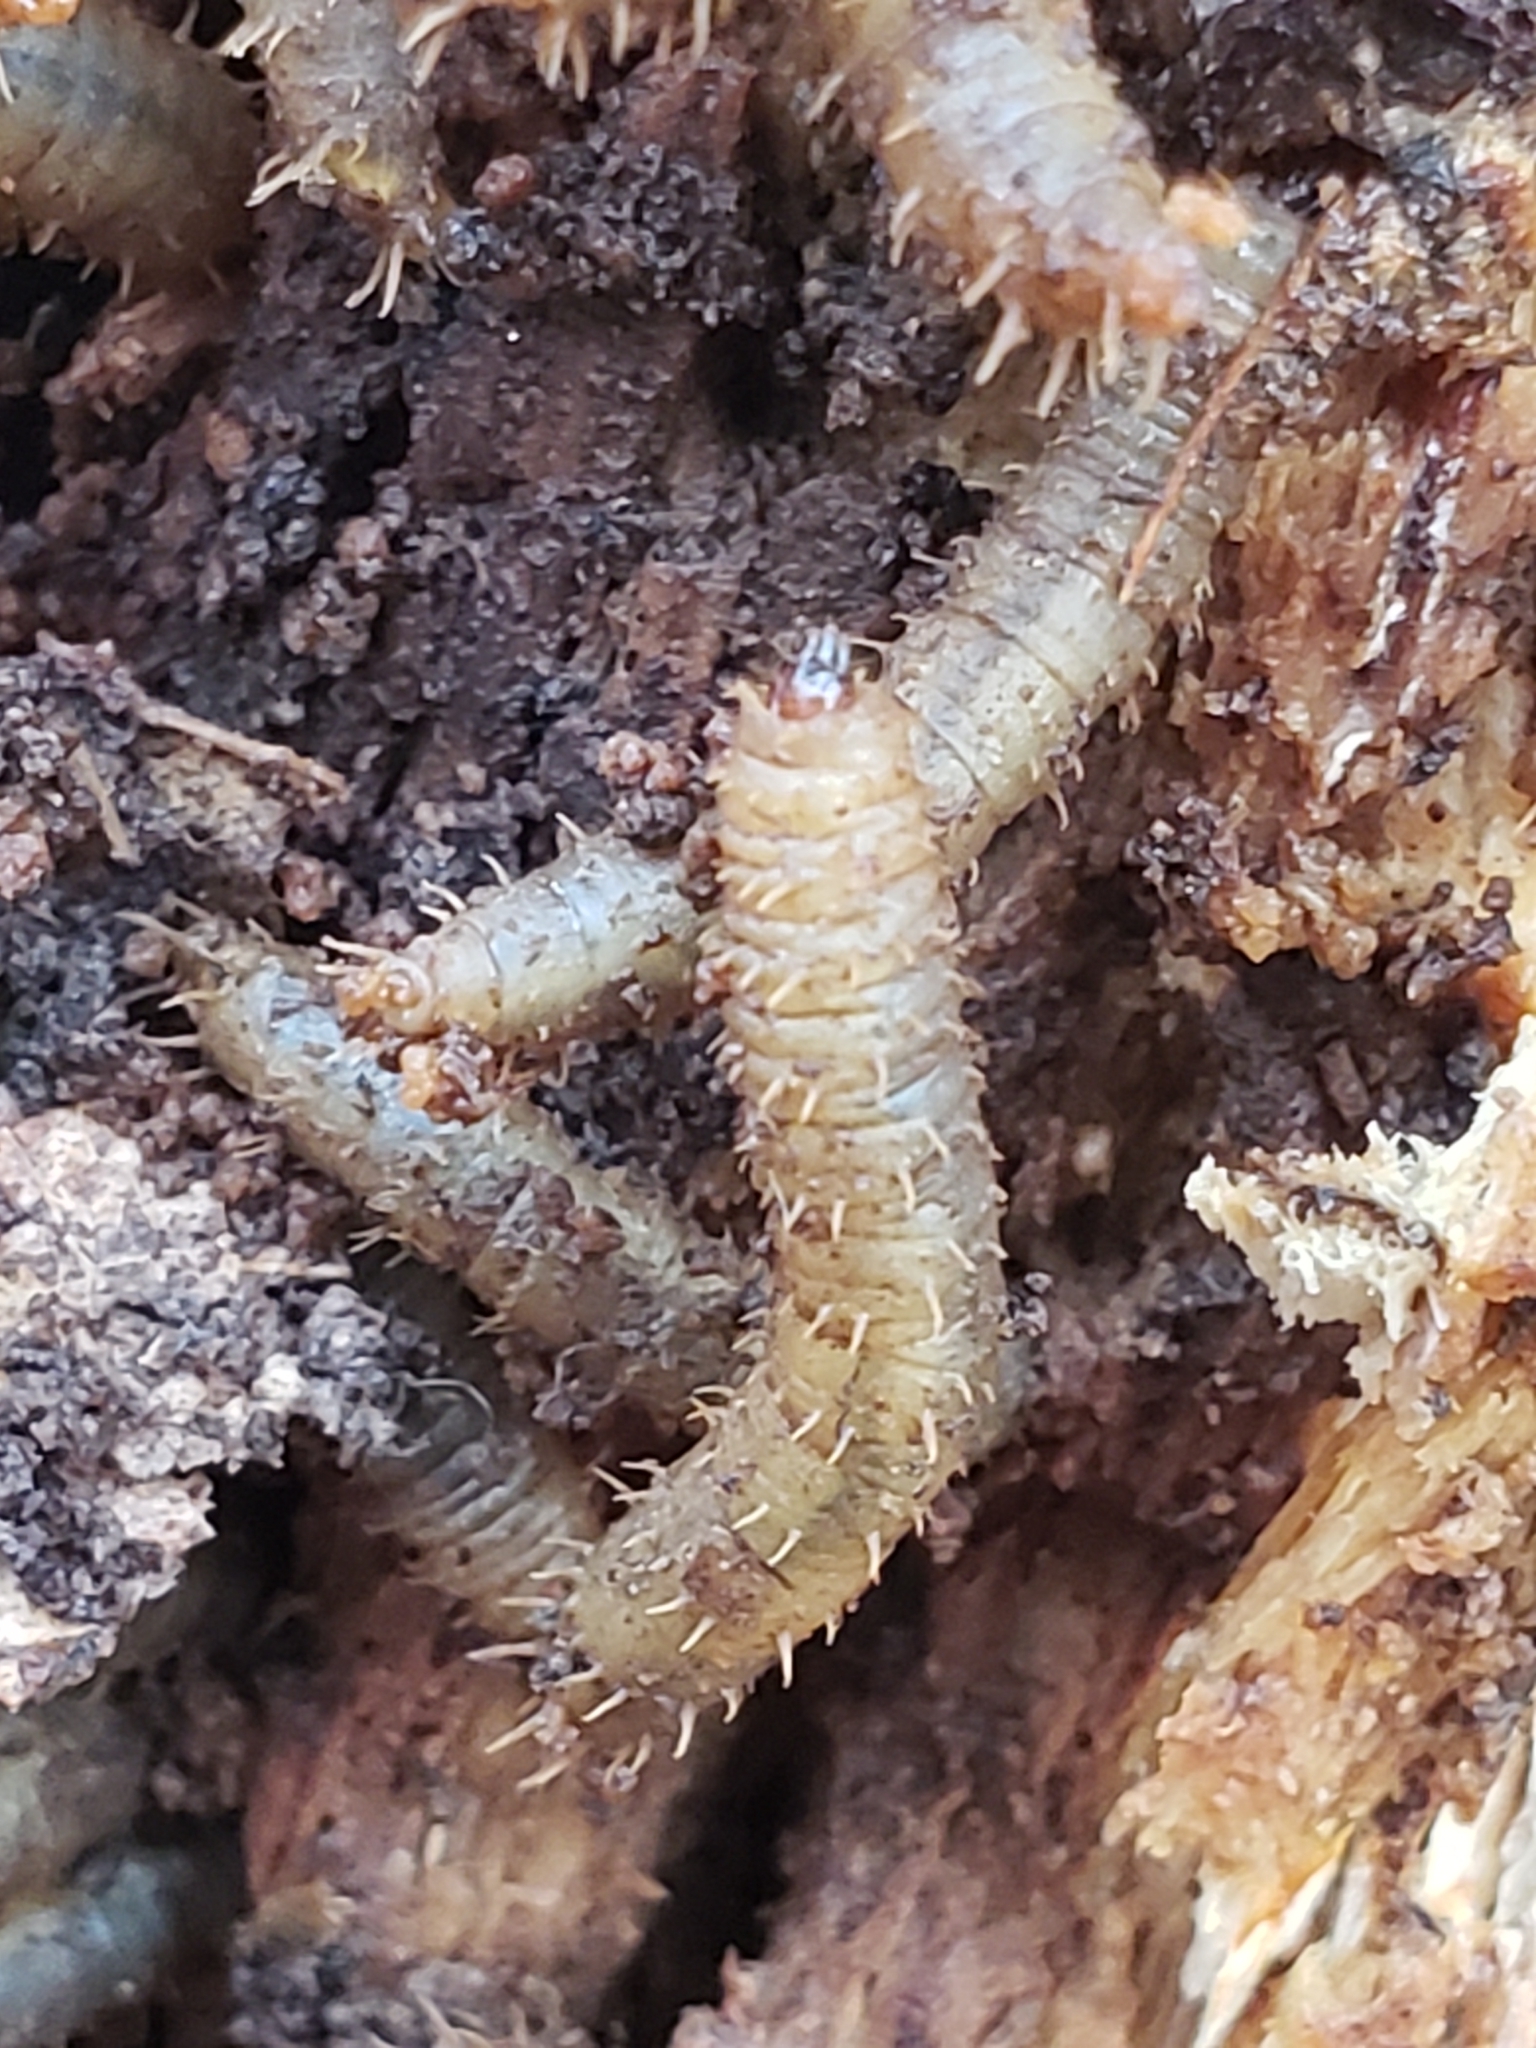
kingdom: Animalia
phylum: Arthropoda
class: Insecta
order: Diptera
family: Bibionidae
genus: Bibio
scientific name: Bibio
